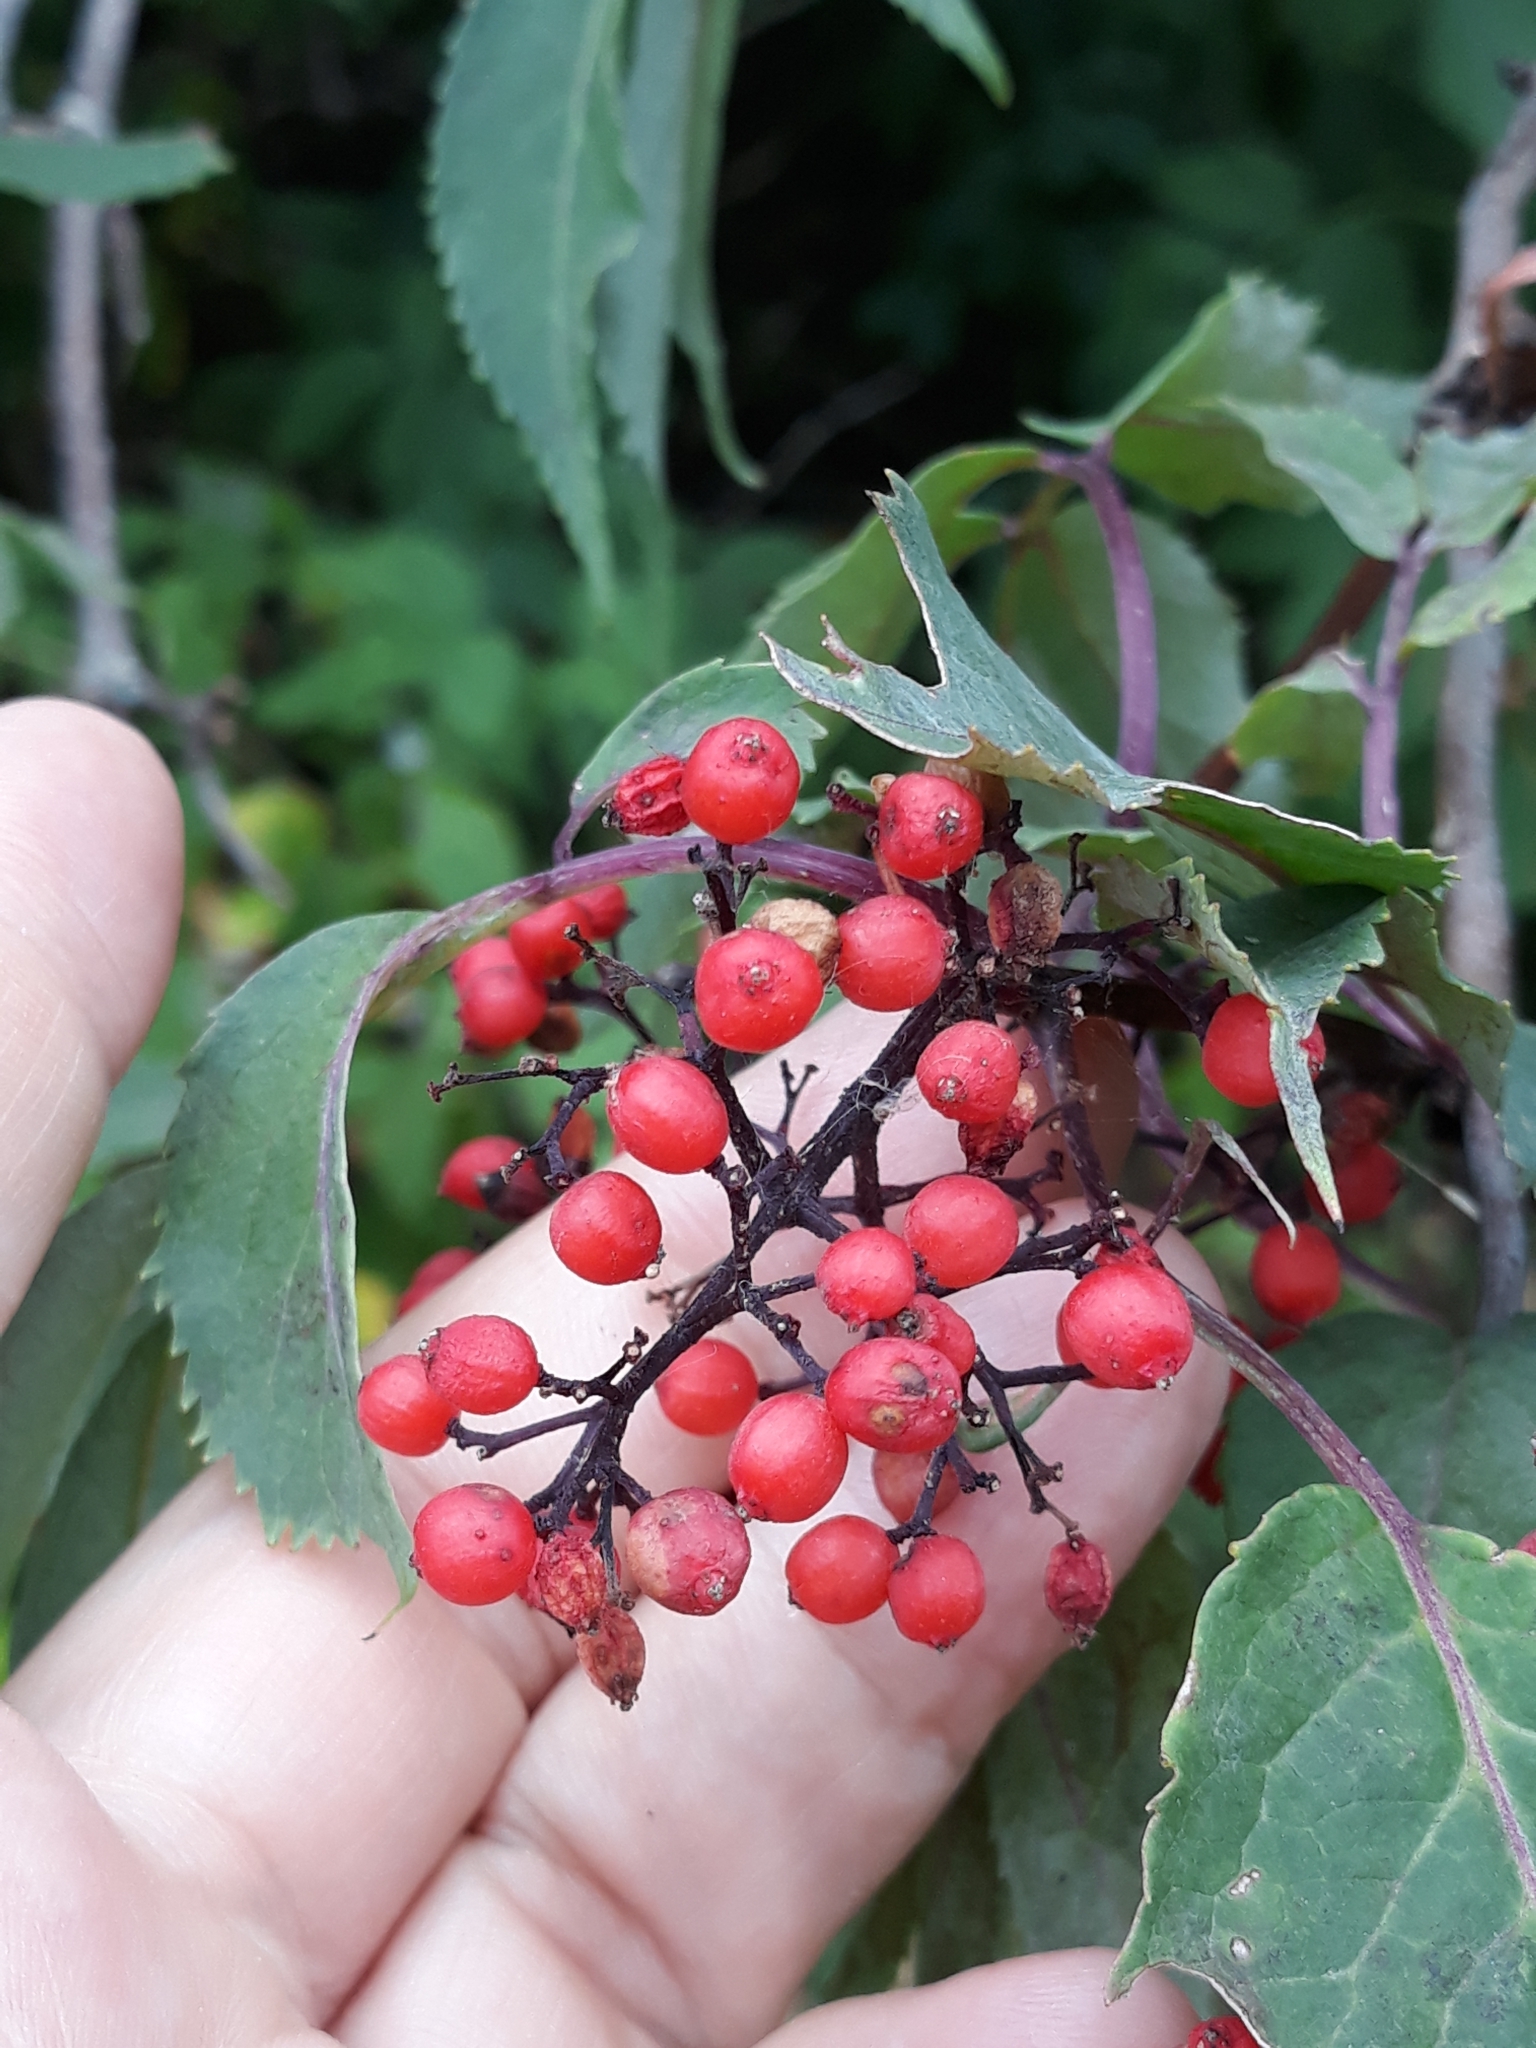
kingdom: Plantae
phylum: Tracheophyta
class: Magnoliopsida
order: Dipsacales
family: Viburnaceae
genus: Sambucus
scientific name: Sambucus racemosa
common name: Red-berried elder
